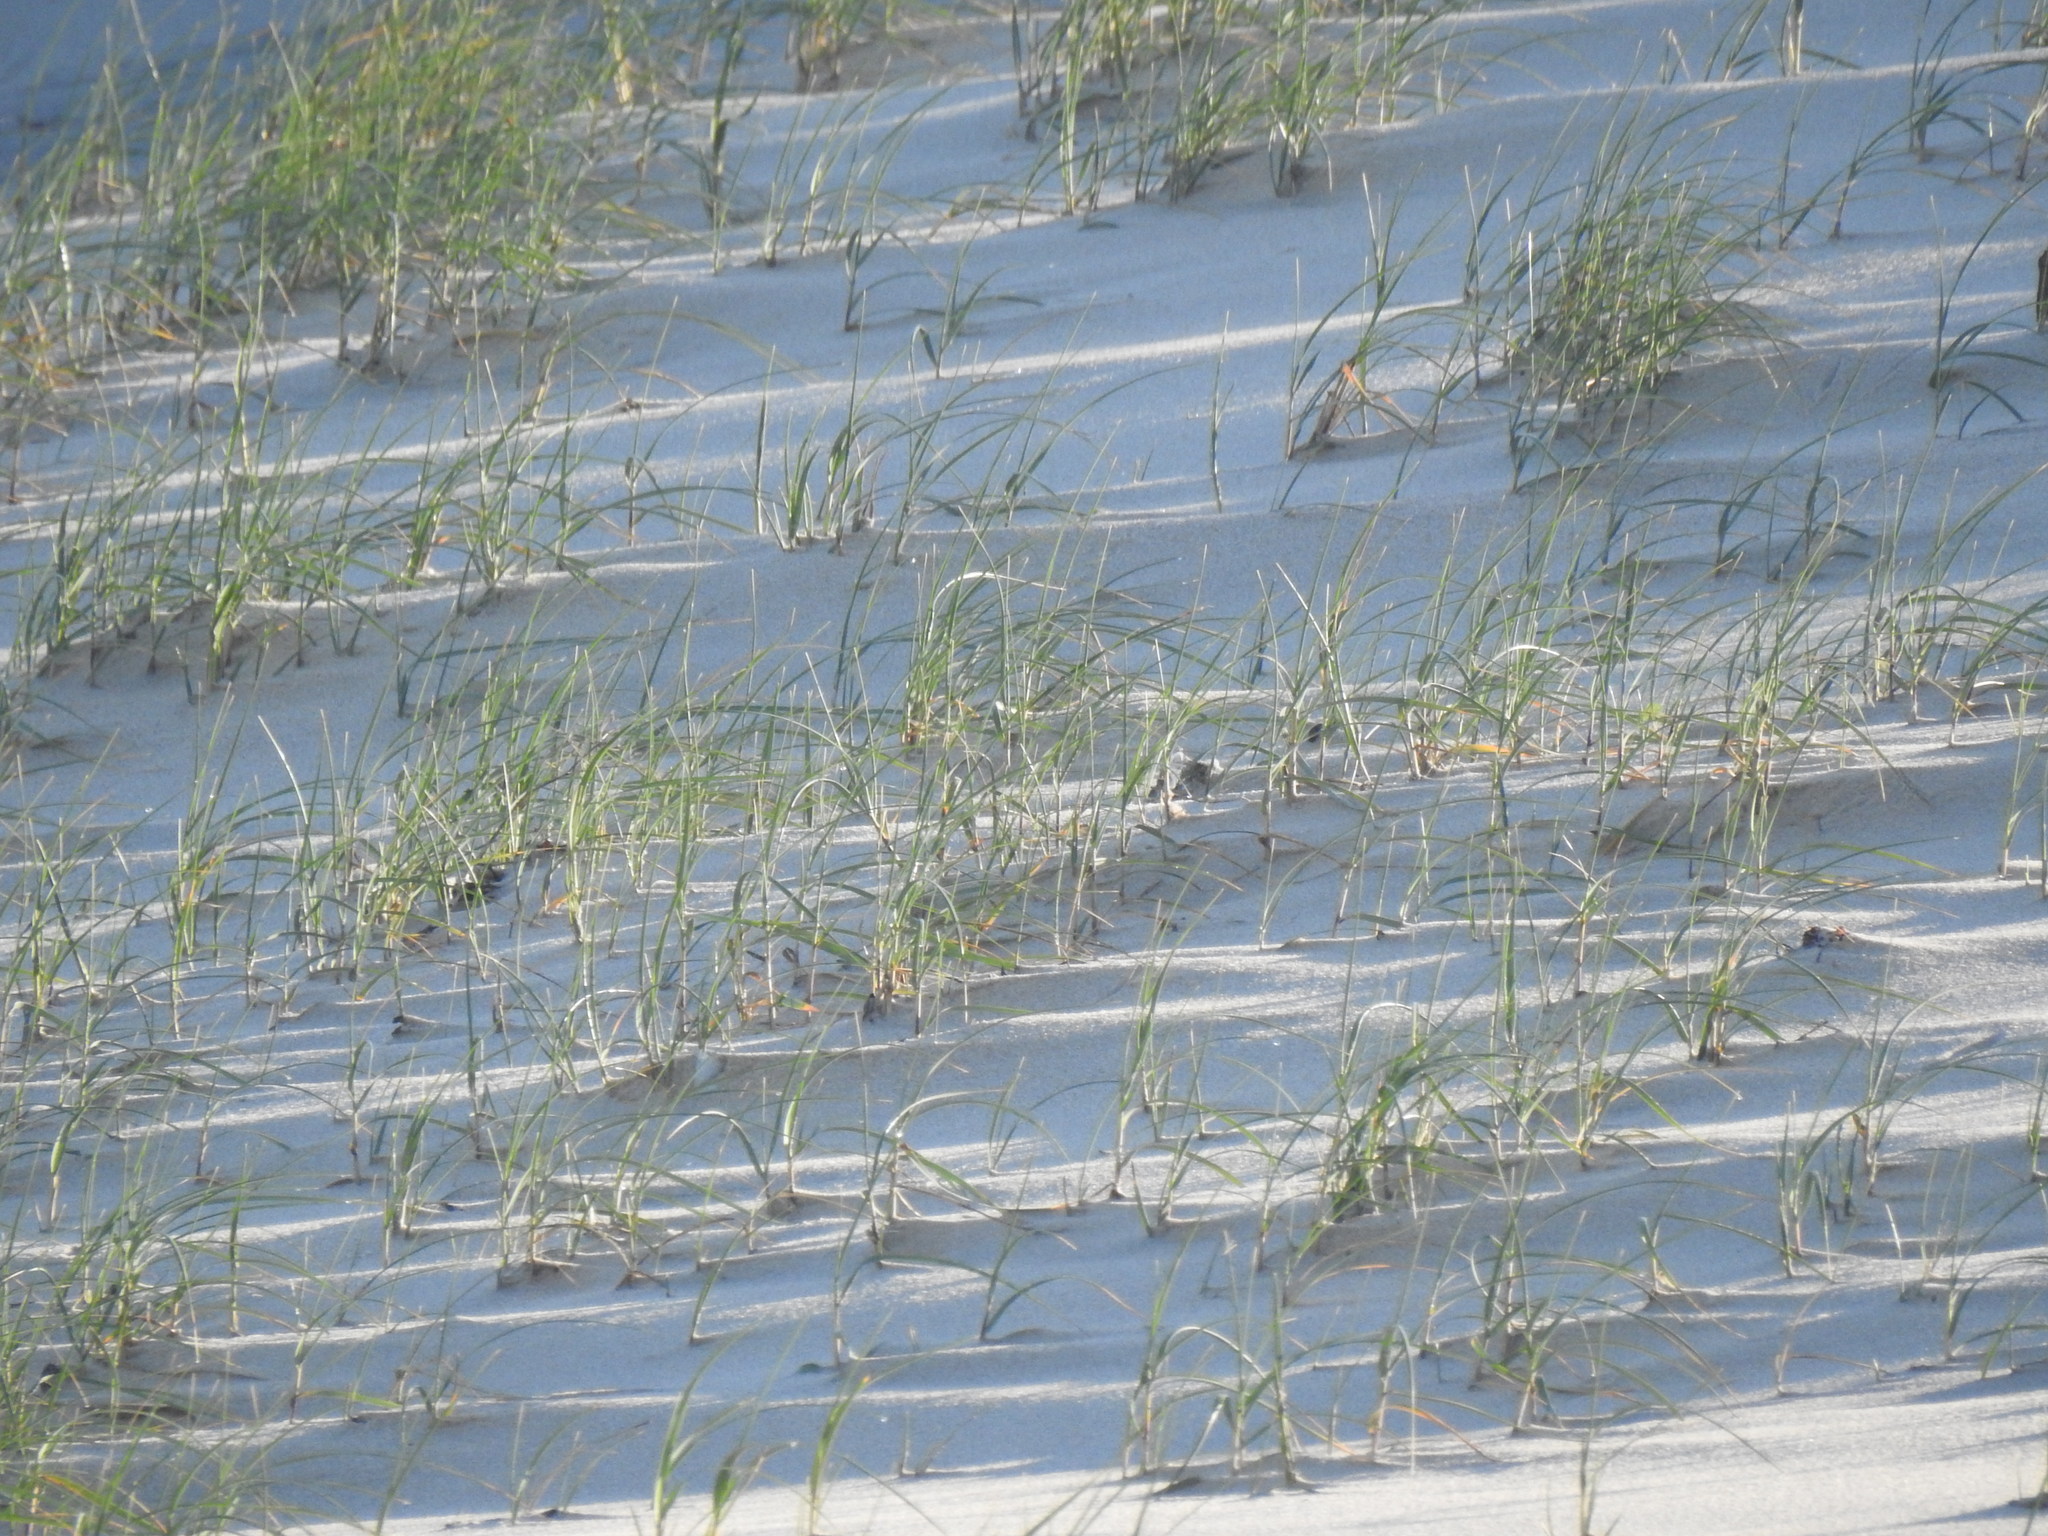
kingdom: Plantae
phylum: Tracheophyta
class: Liliopsida
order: Poales
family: Poaceae
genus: Thinopyrum
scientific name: Thinopyrum junceum
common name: Russian wheatgrass
